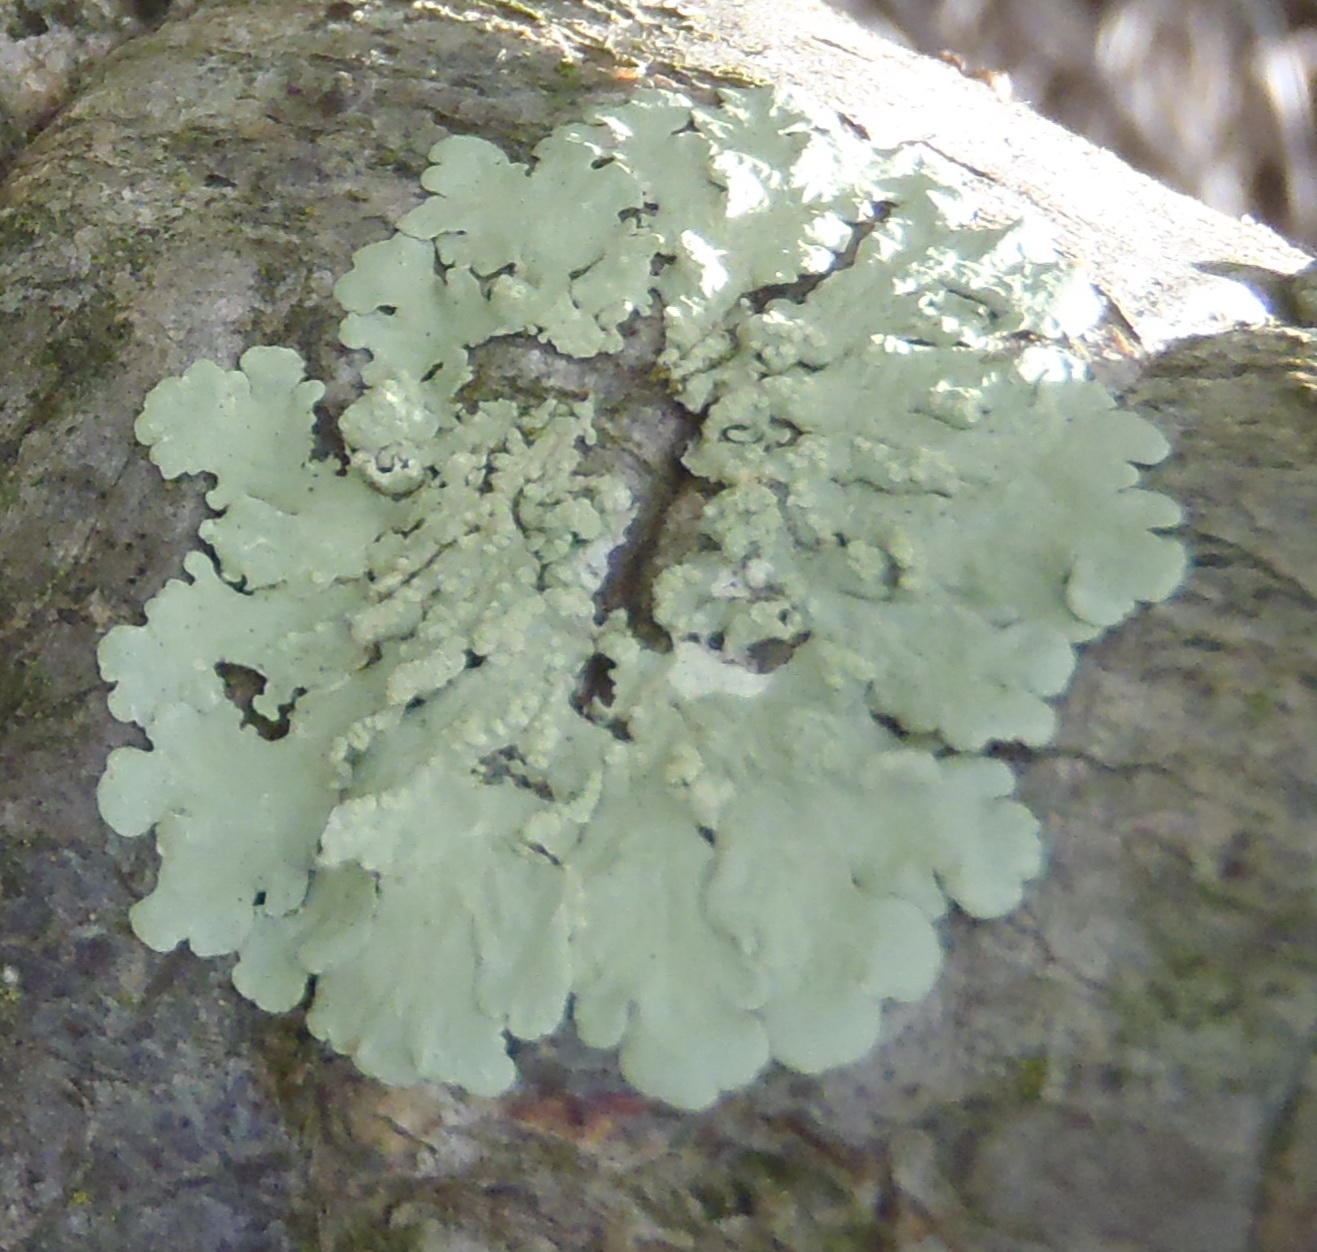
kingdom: Fungi
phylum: Ascomycota
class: Lecanoromycetes
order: Lecanorales
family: Parmeliaceae
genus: Flavoparmelia
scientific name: Flavoparmelia soredians
